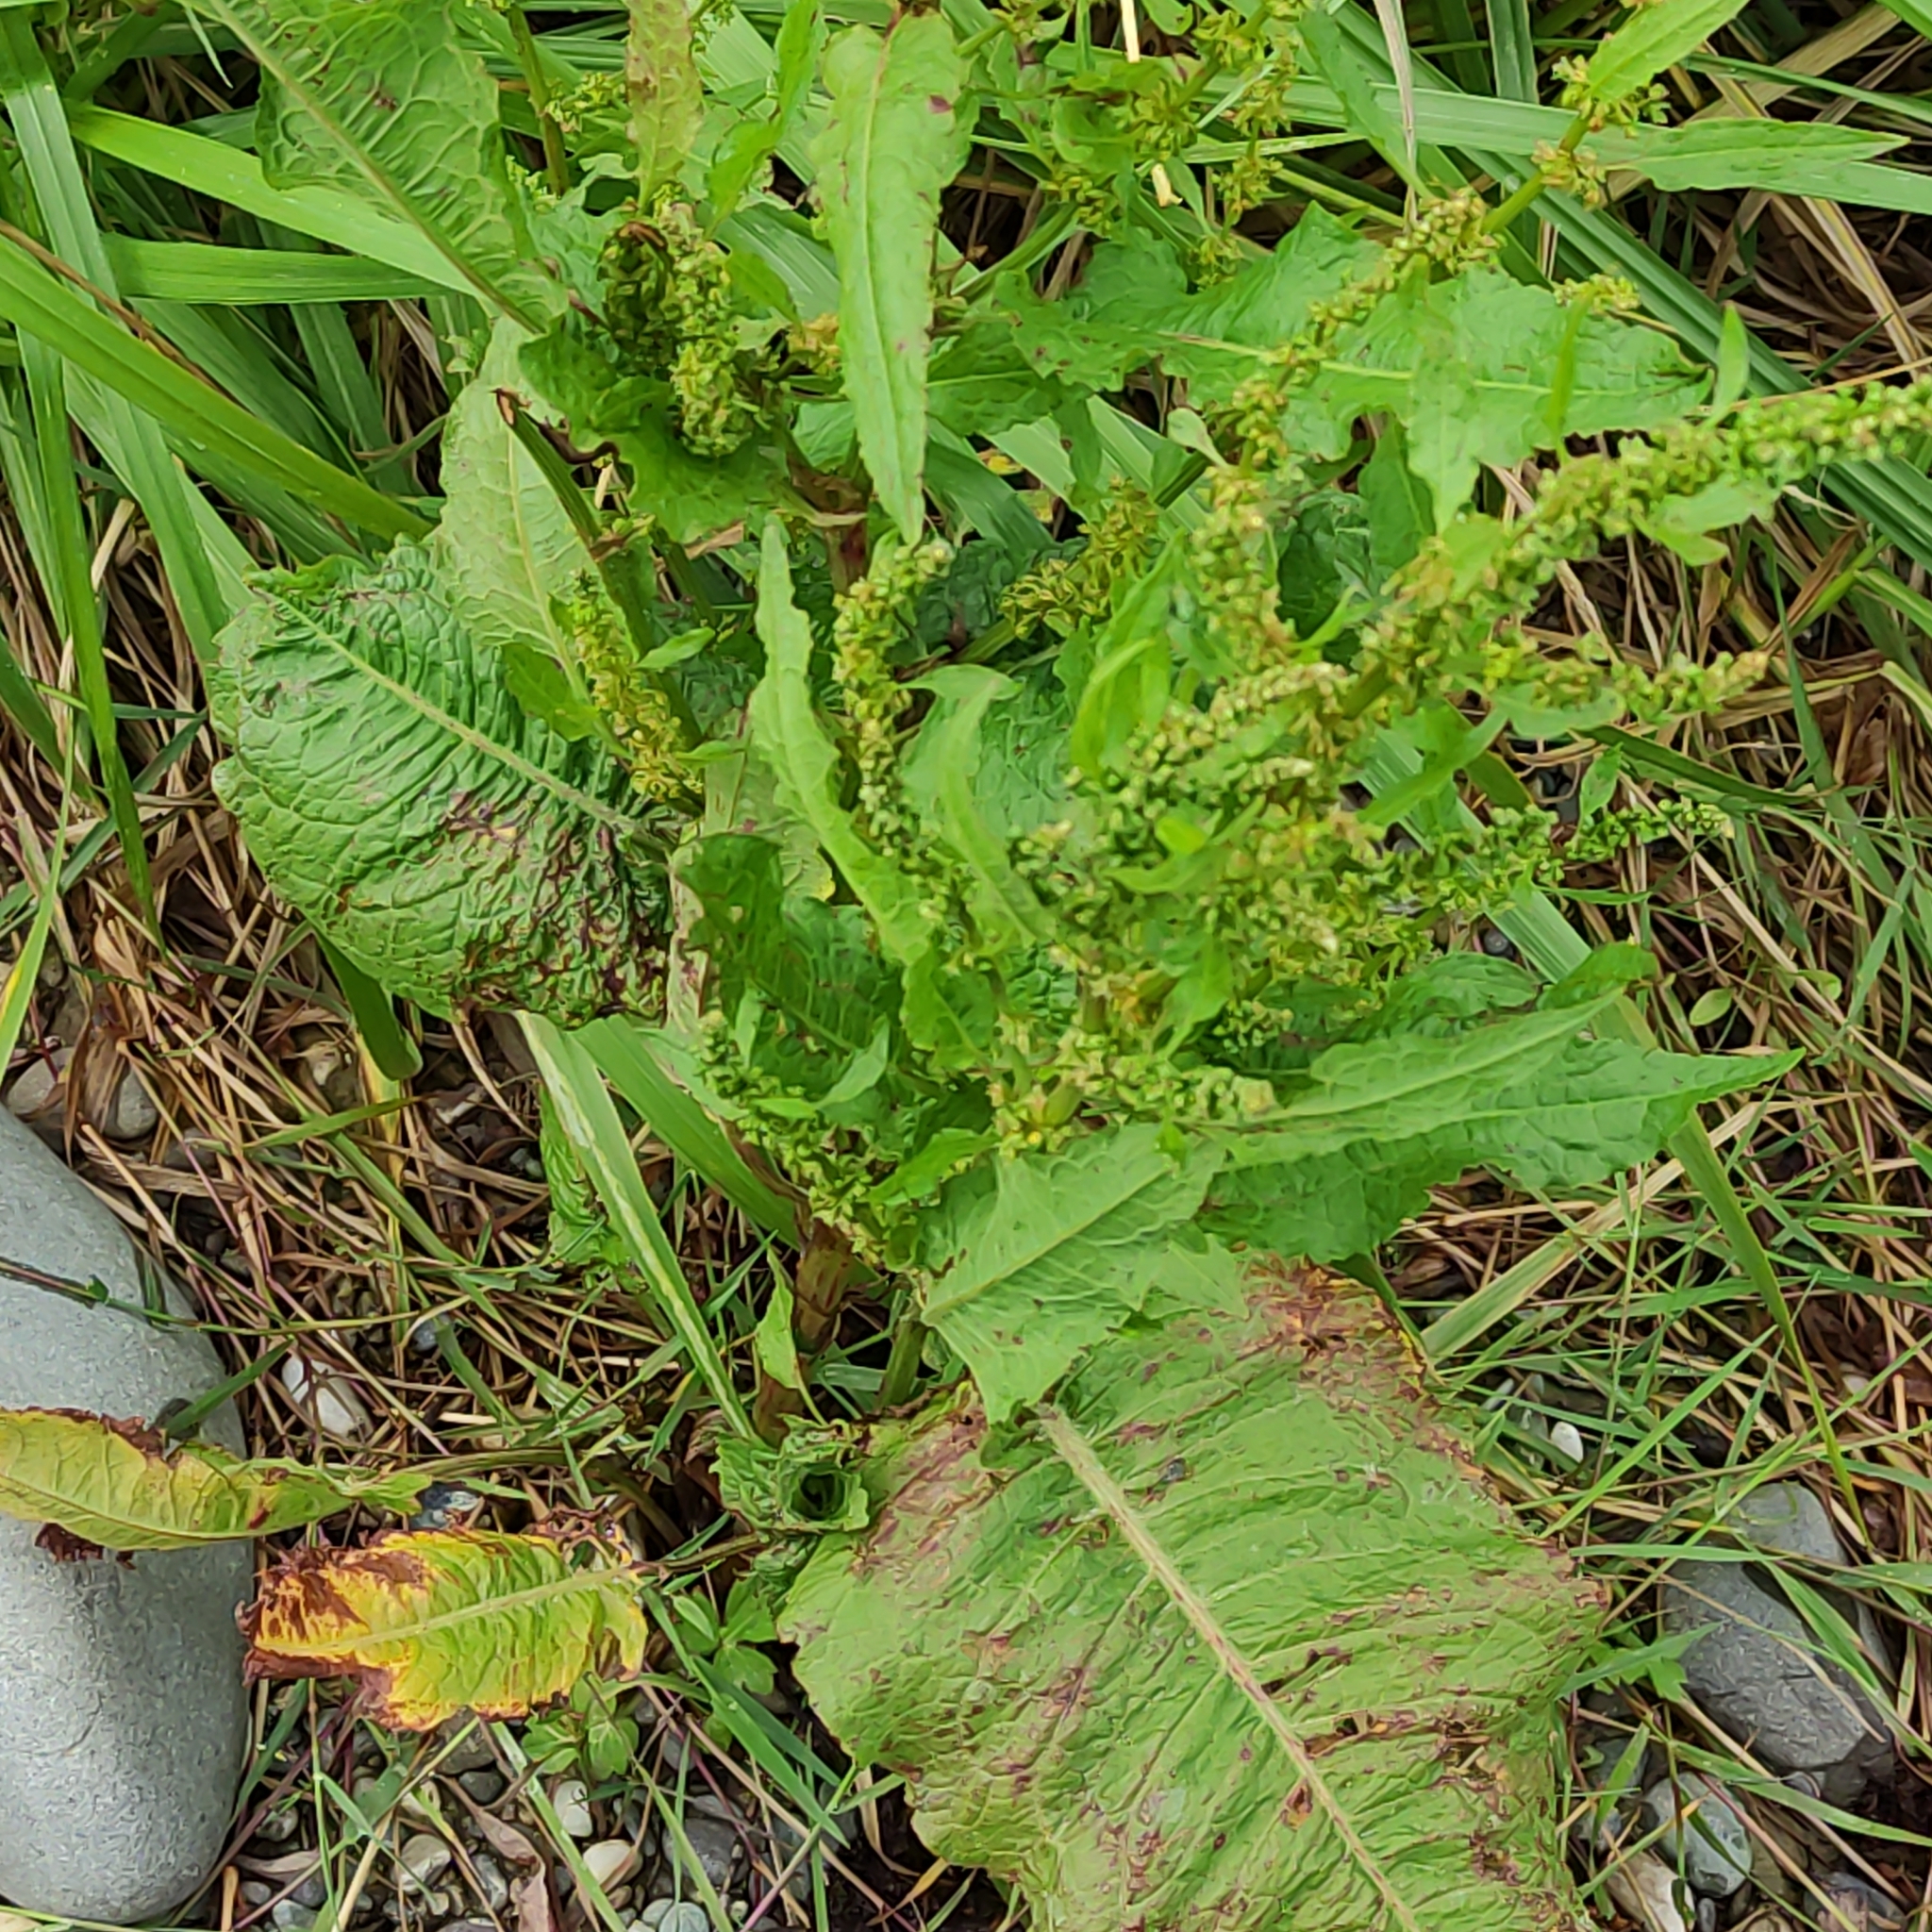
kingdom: Plantae
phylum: Tracheophyta
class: Magnoliopsida
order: Caryophyllales
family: Polygonaceae
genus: Rumex
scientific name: Rumex obtusifolius
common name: Bitter dock
